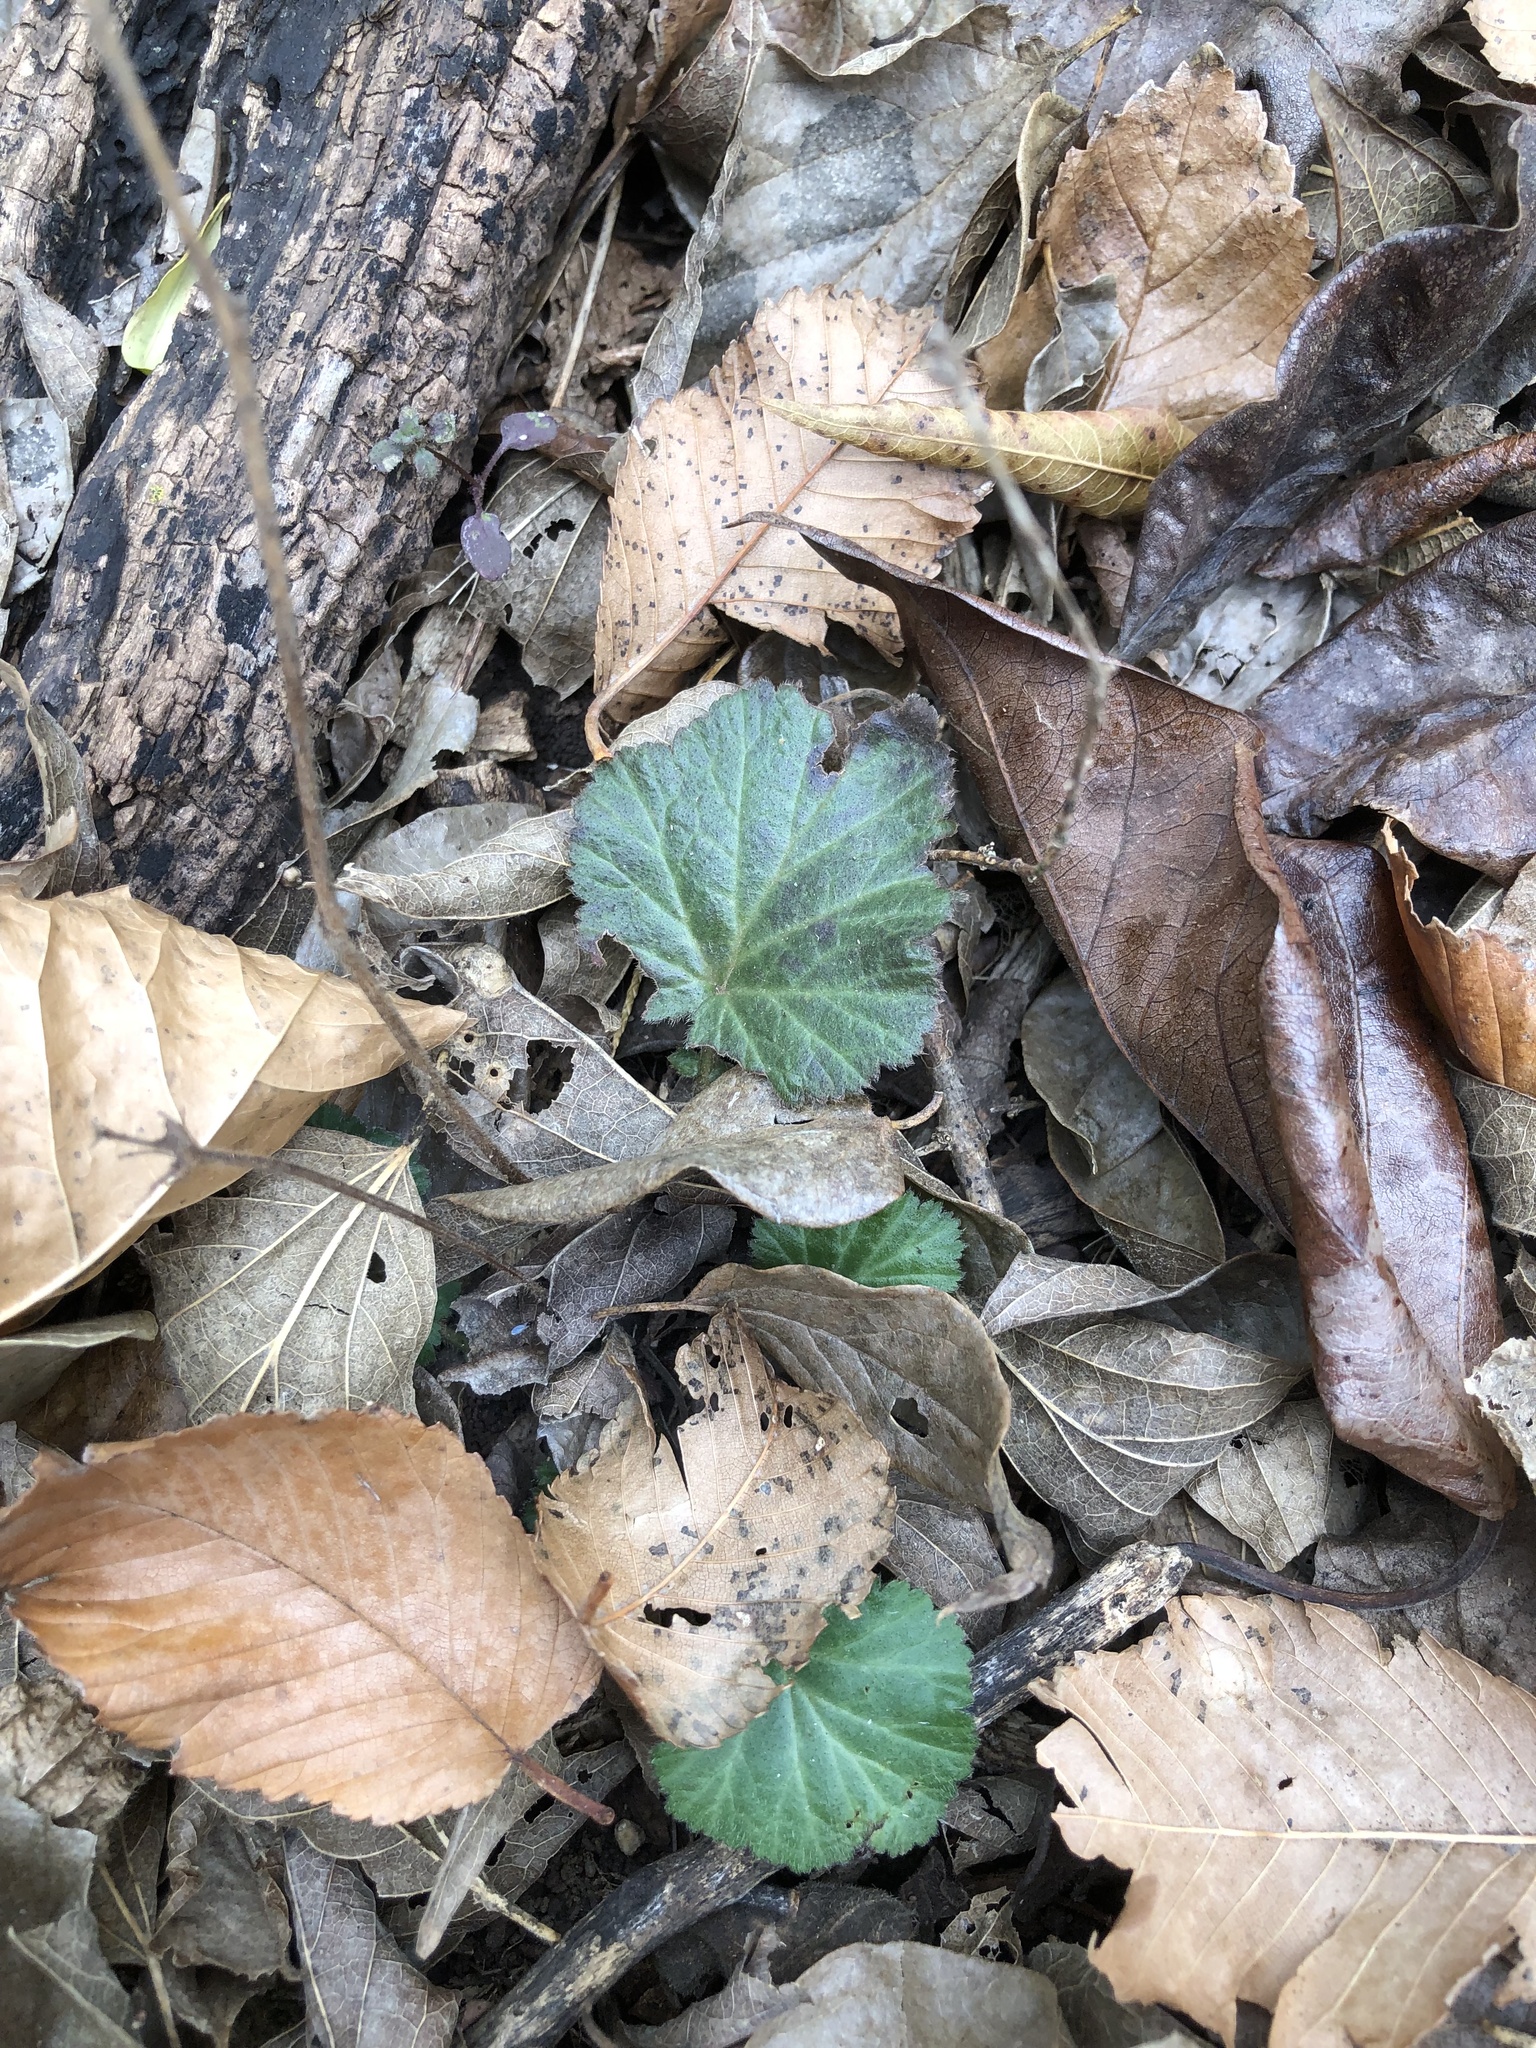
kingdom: Plantae
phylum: Tracheophyta
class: Magnoliopsida
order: Rosales
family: Rosaceae
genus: Geum
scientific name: Geum canadense
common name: White avens
